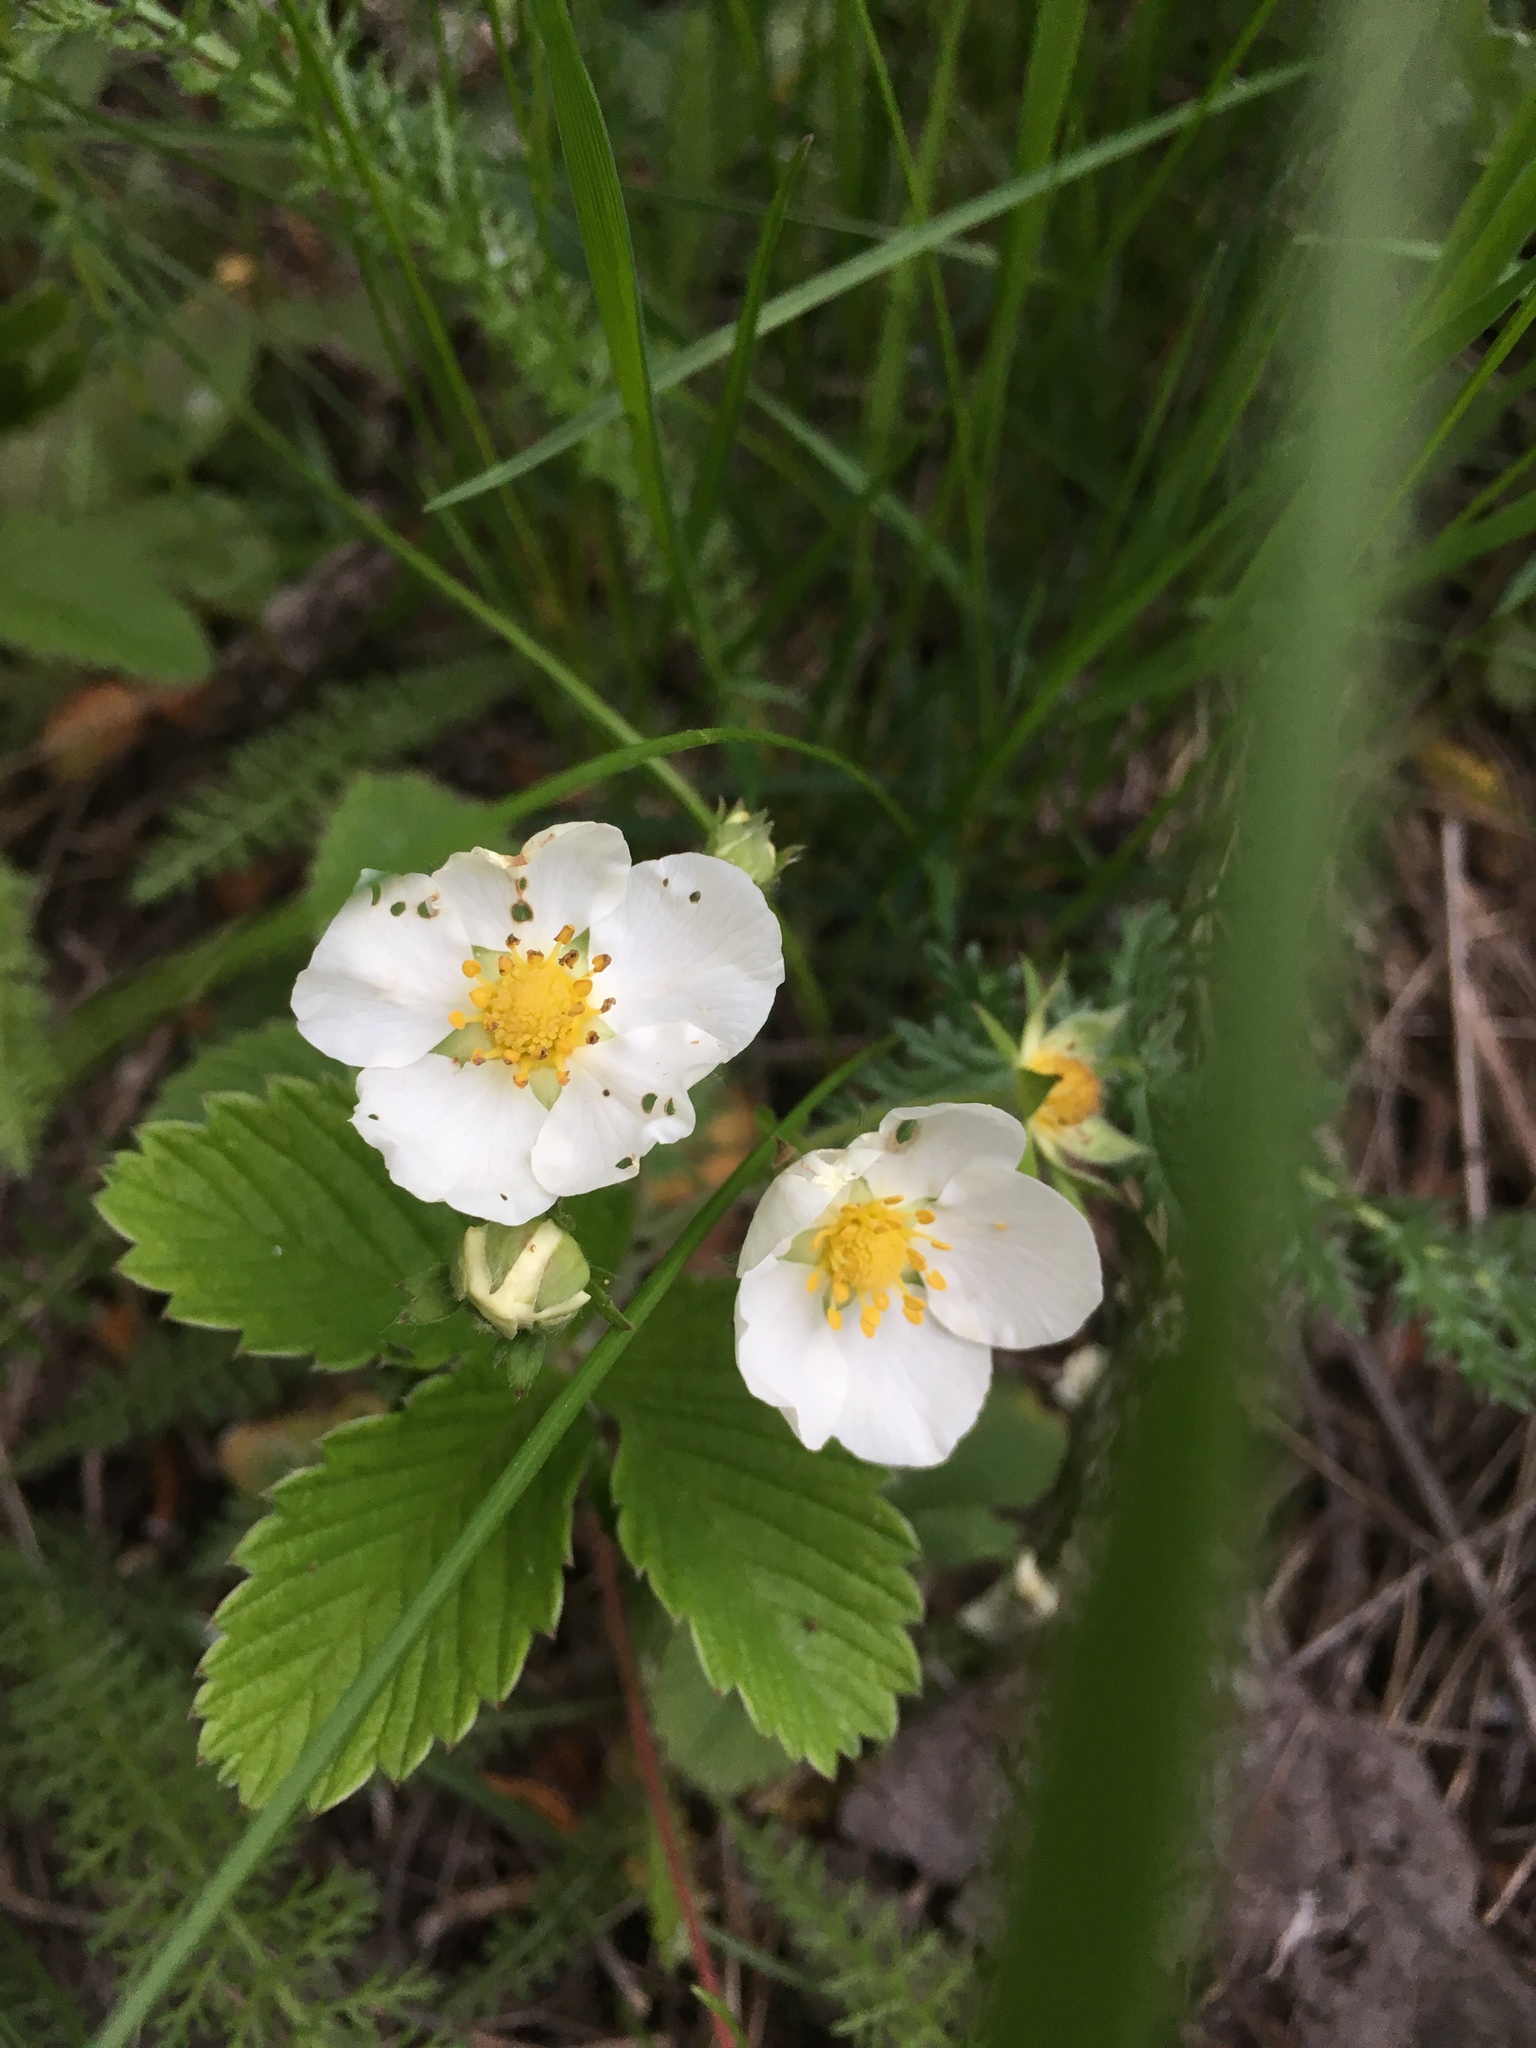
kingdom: Plantae
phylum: Tracheophyta
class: Magnoliopsida
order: Rosales
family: Rosaceae
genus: Fragaria
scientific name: Fragaria viridis
